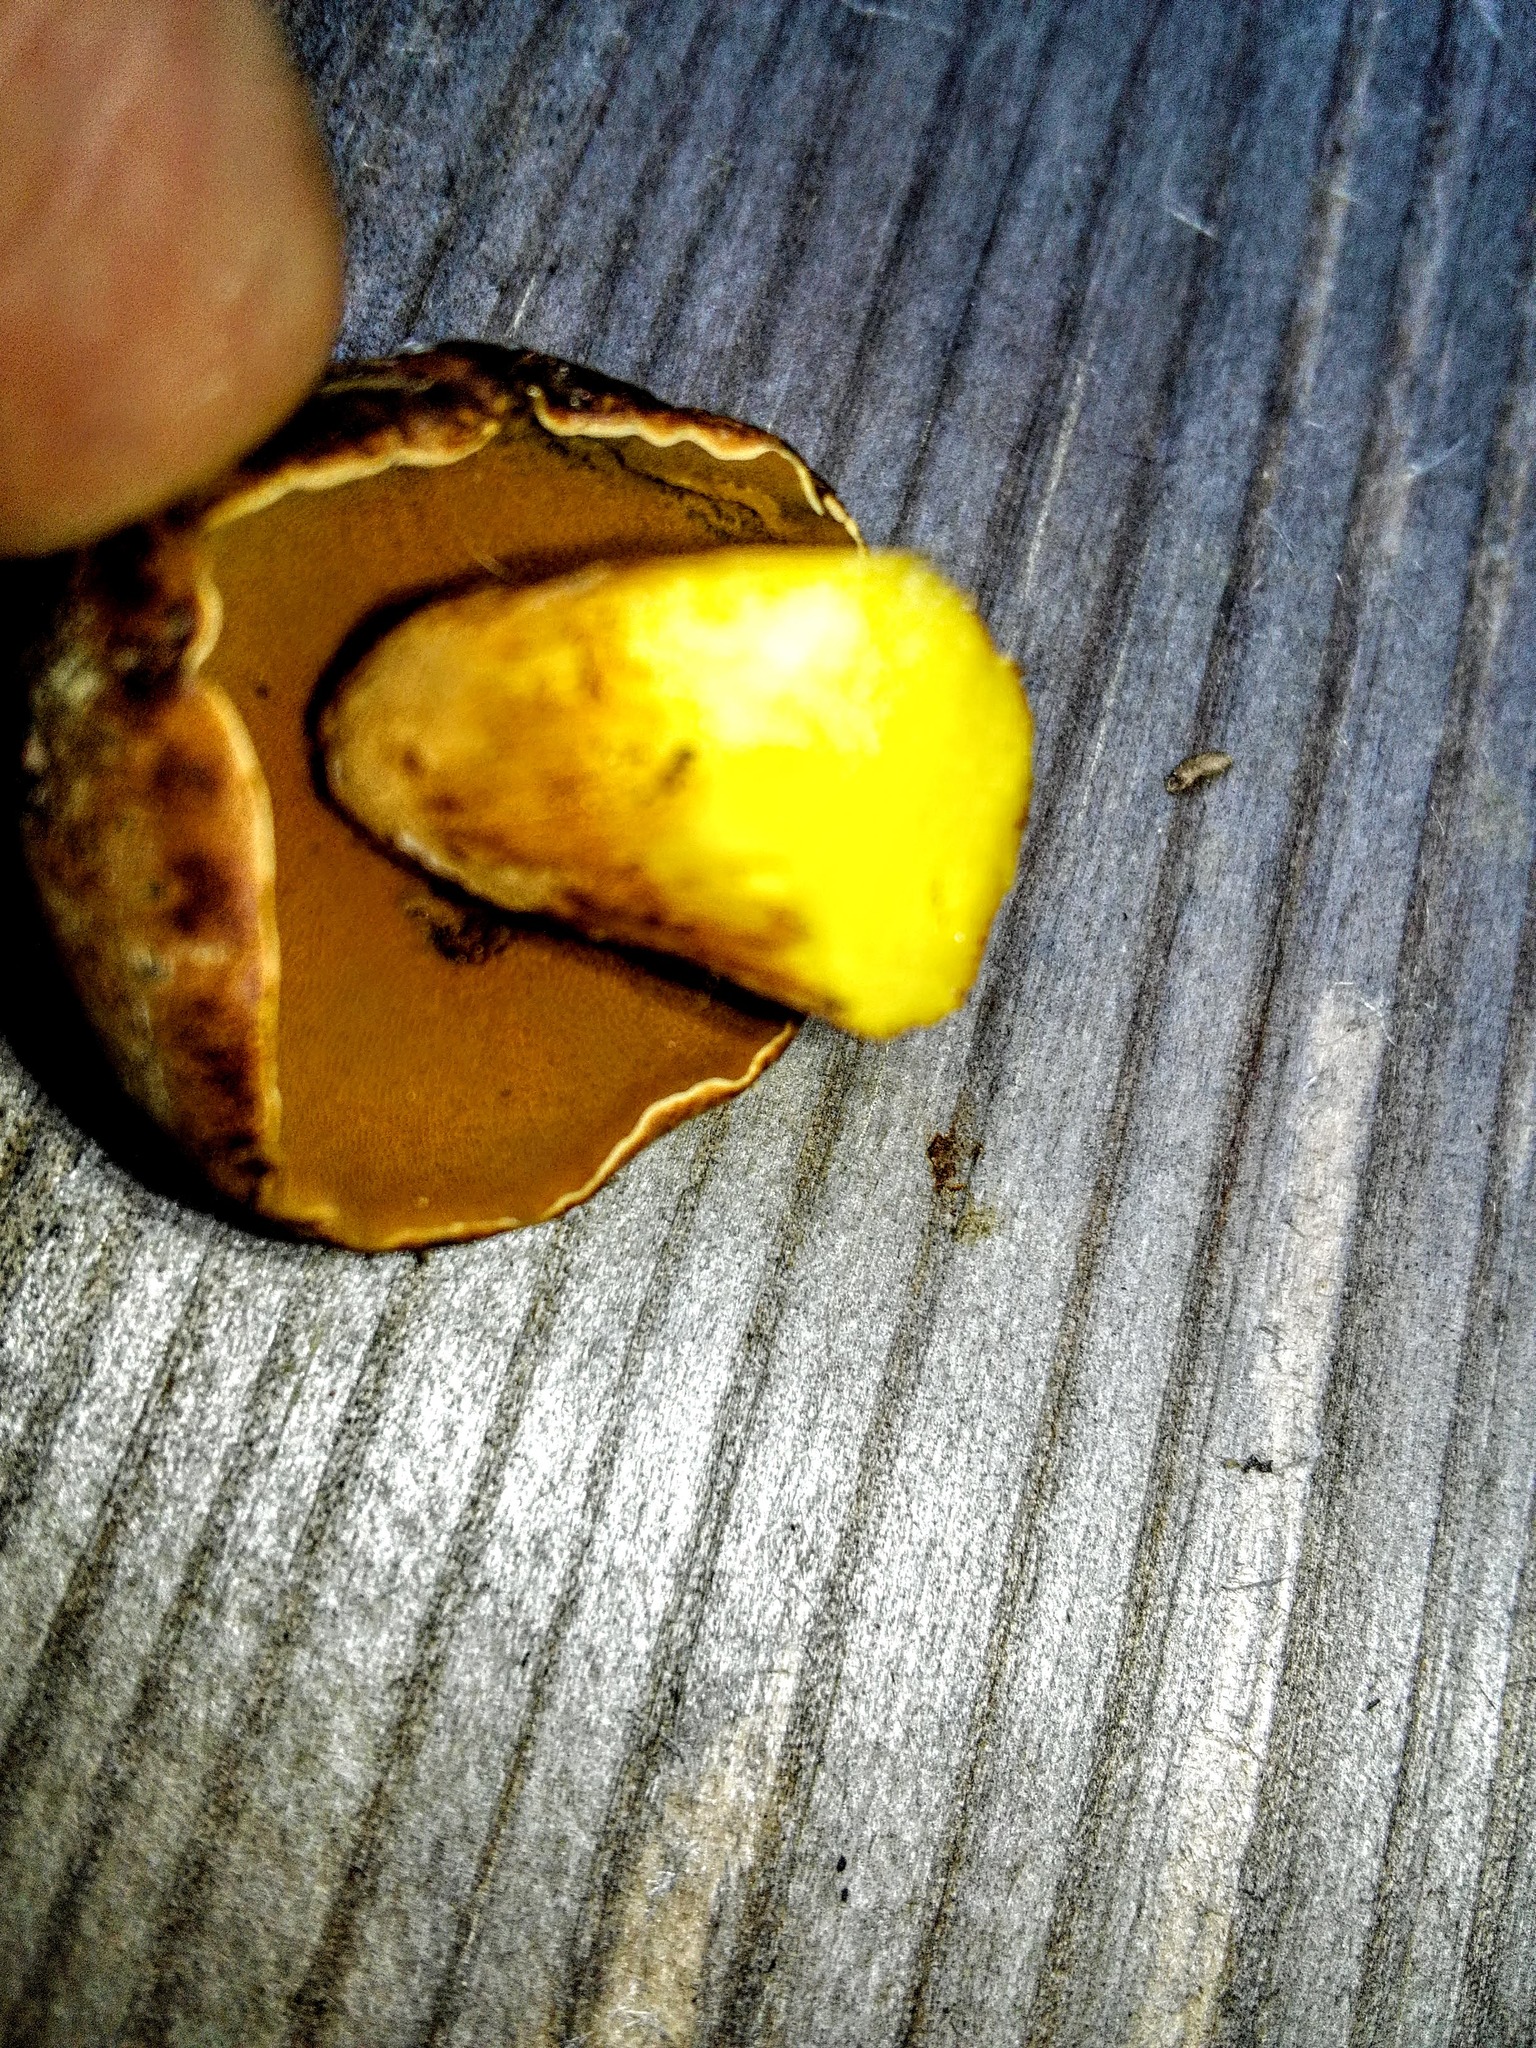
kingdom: Fungi
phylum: Basidiomycota
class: Agaricomycetes
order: Boletales
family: Boletaceae
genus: Chalciporus
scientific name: Chalciporus piperatus
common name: Peppery bolete
